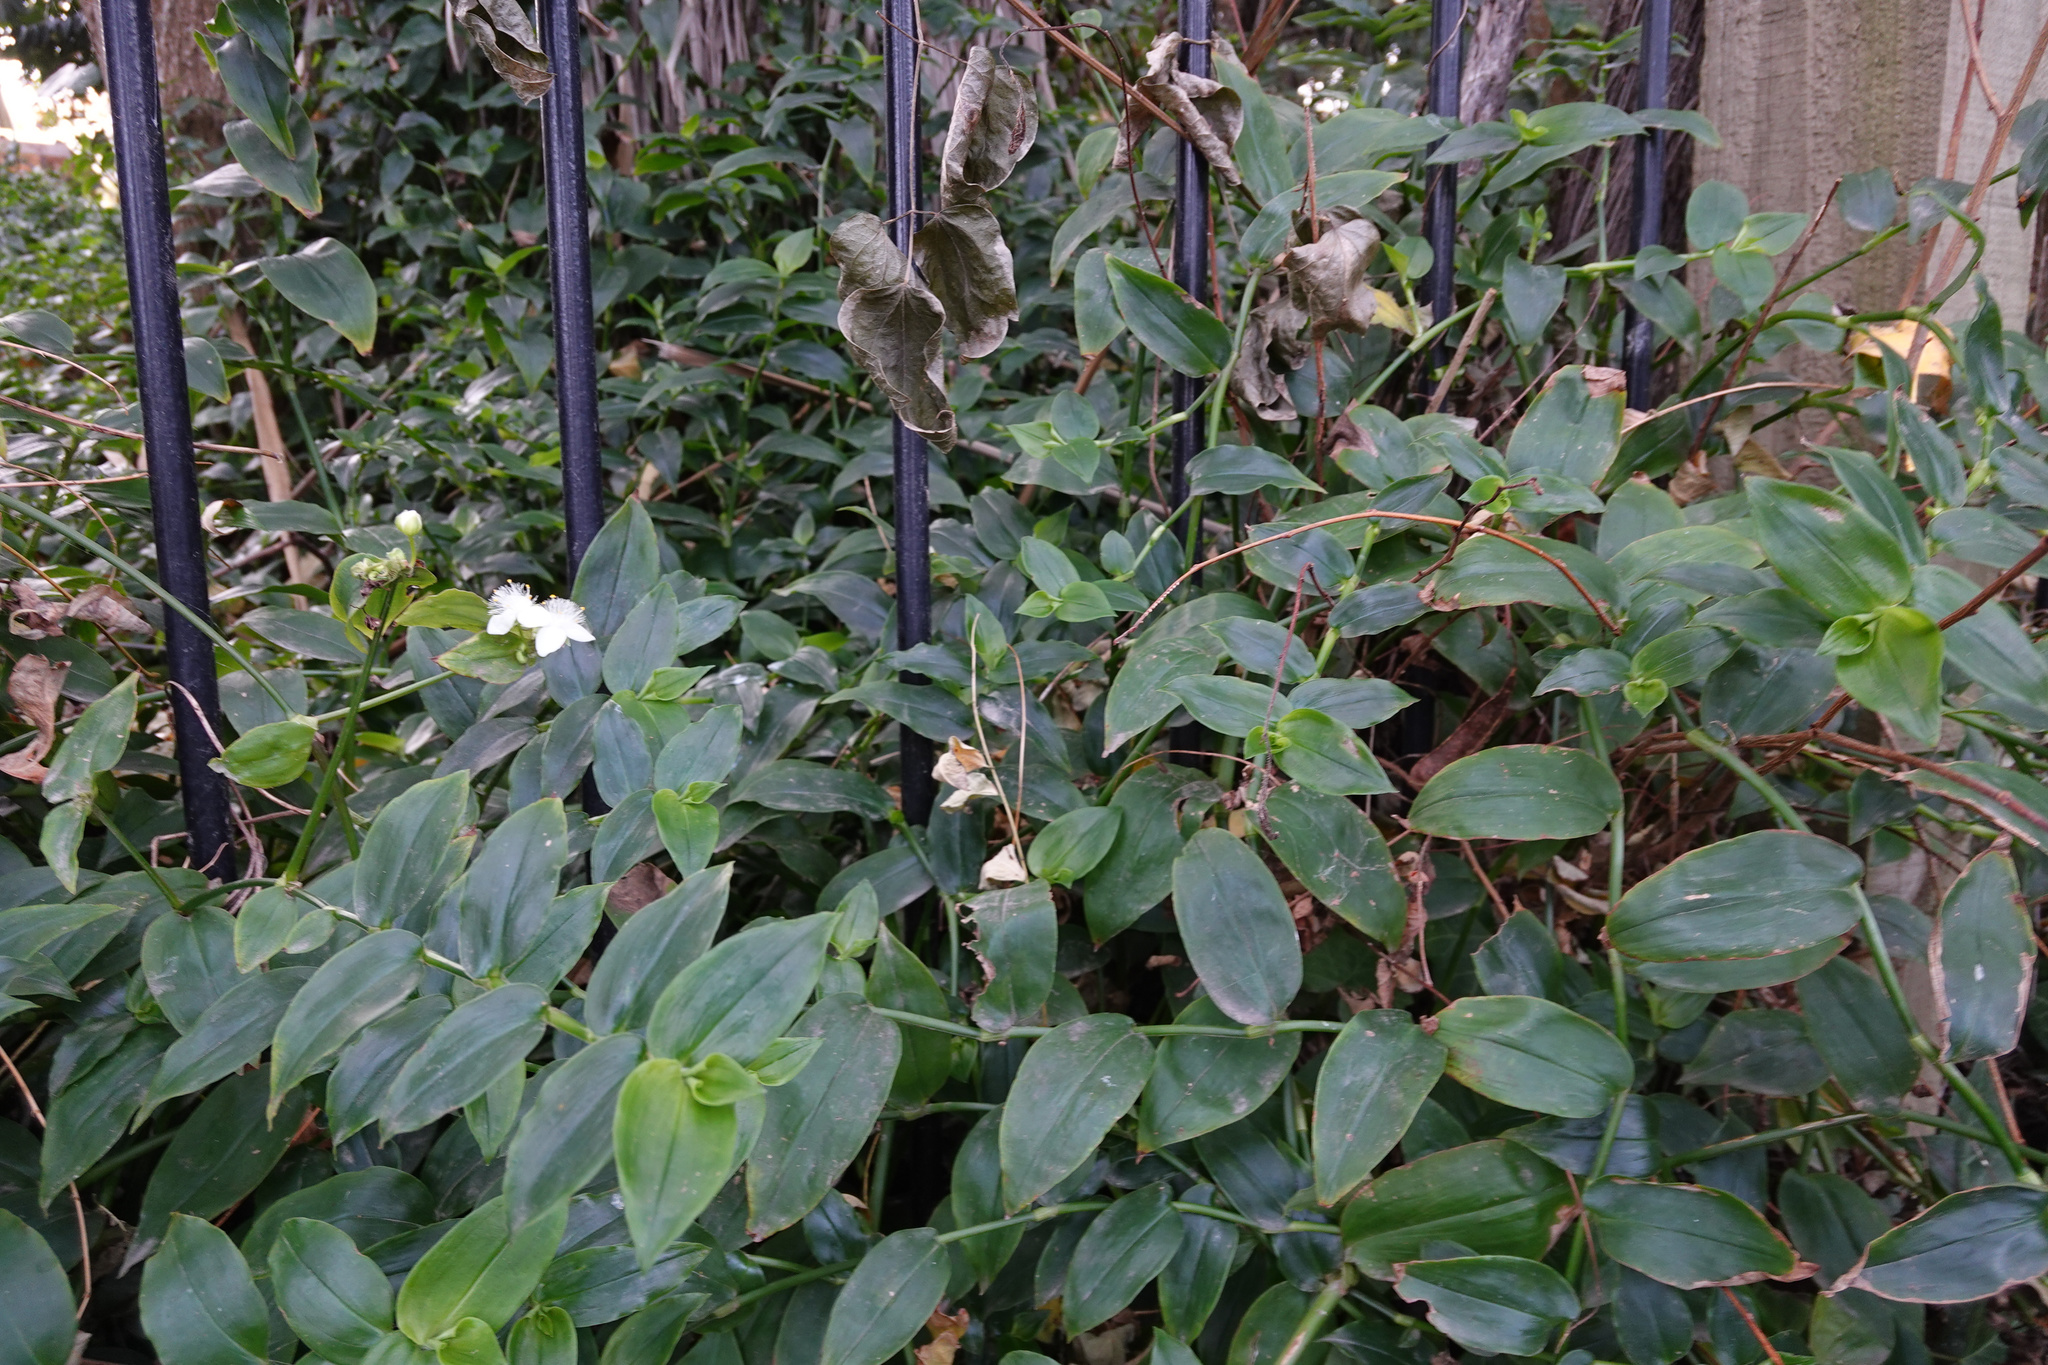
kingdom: Plantae
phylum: Tracheophyta
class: Liliopsida
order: Commelinales
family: Commelinaceae
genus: Tradescantia
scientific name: Tradescantia fluminensis
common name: Wandering-jew
